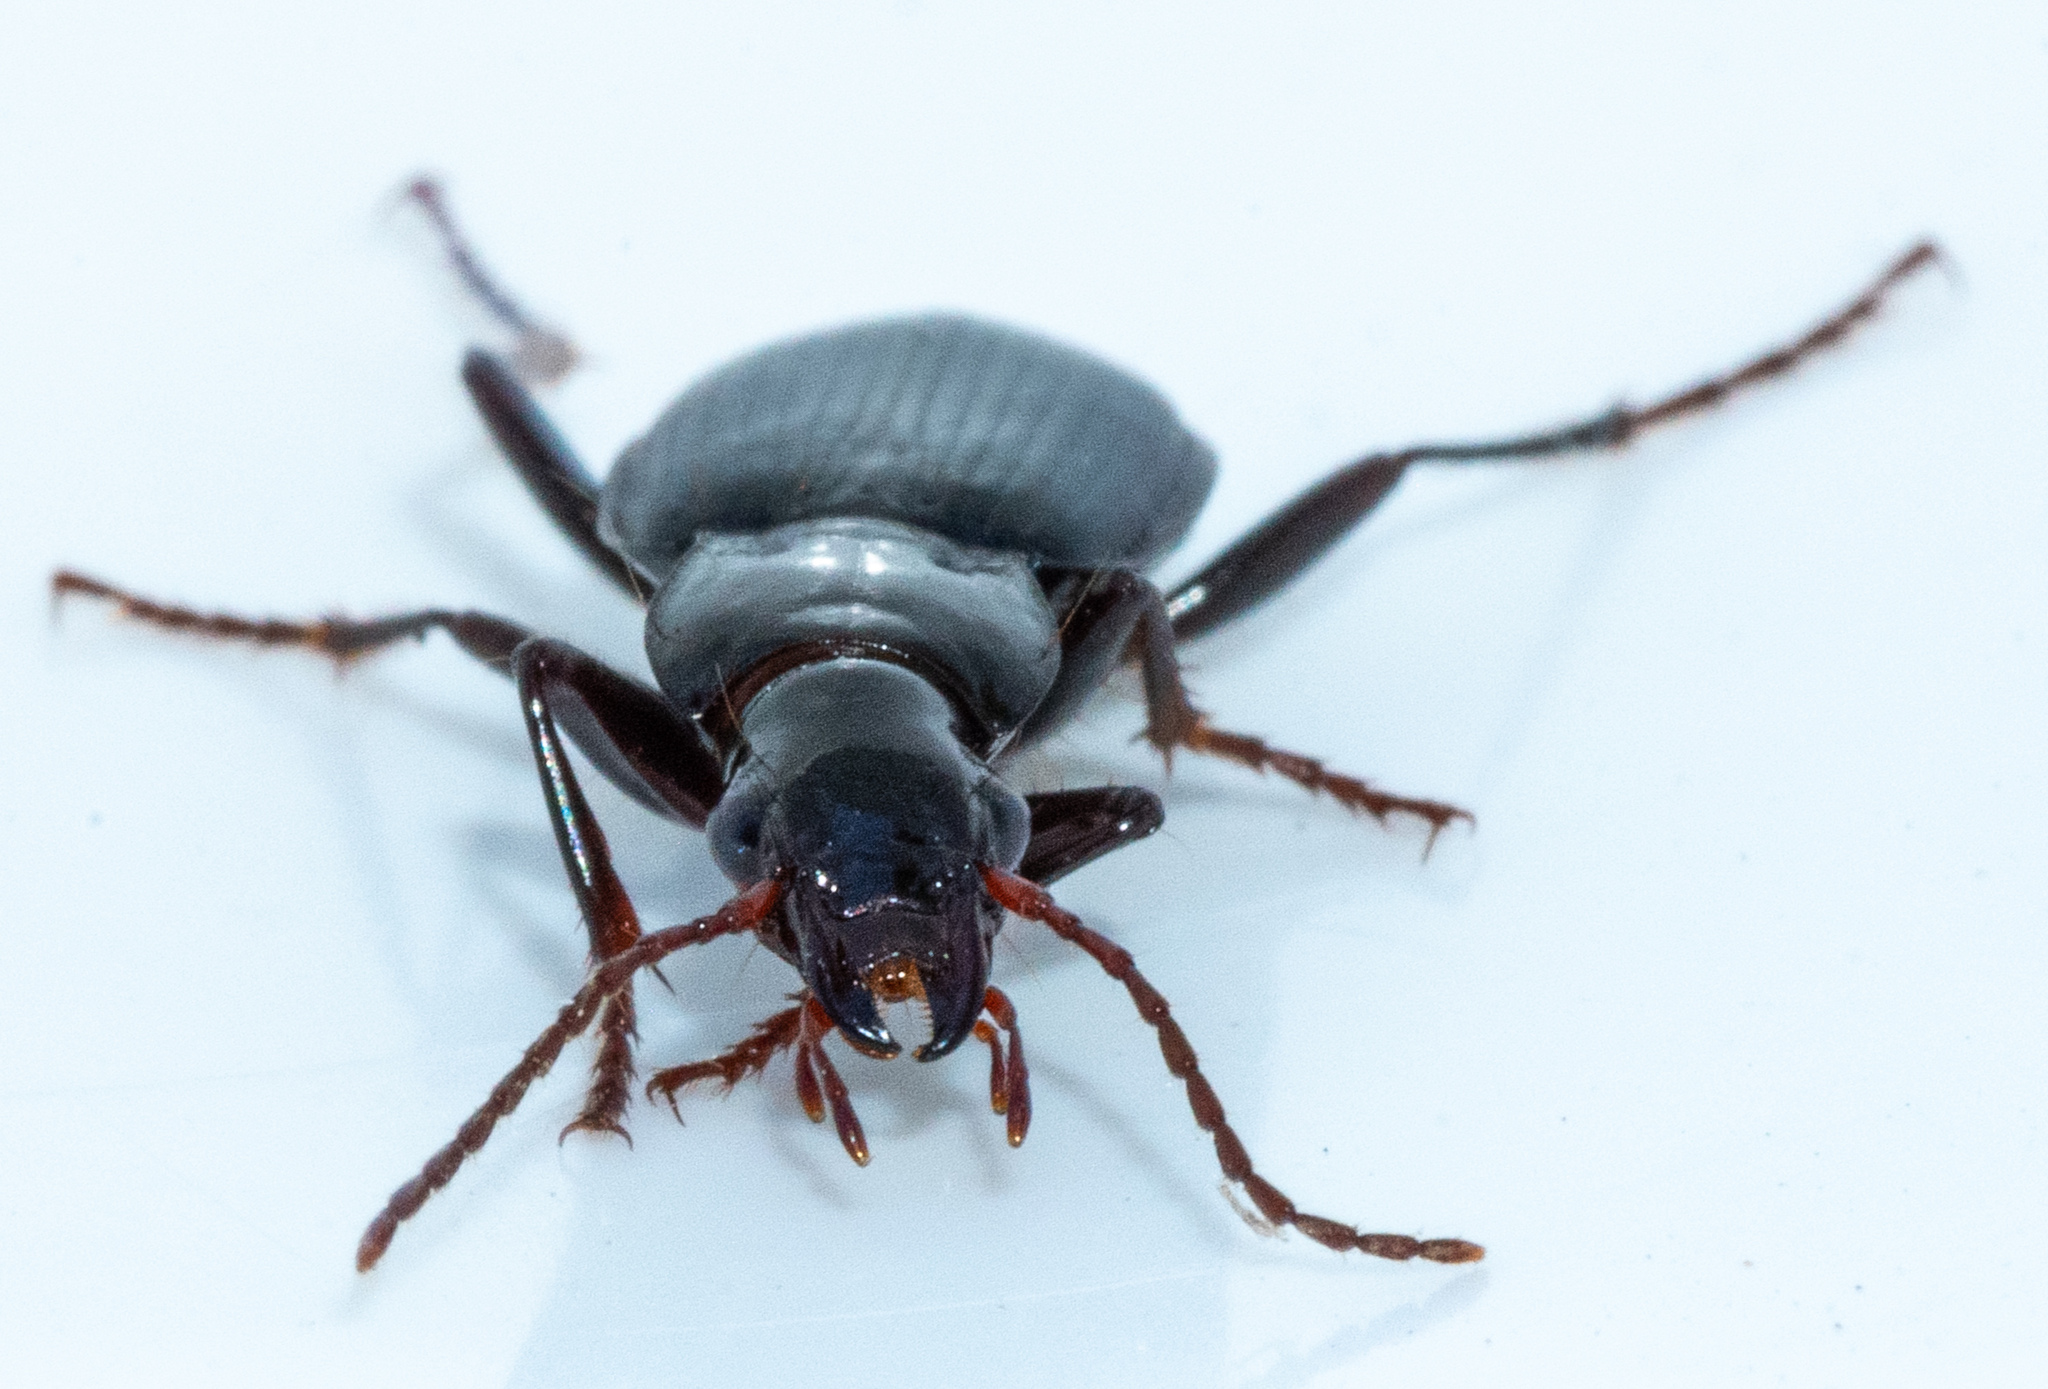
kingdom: Animalia
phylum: Arthropoda
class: Insecta
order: Coleoptera
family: Carabidae
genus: Laemostenus
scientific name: Laemostenus complanatus
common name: Cosmopolitan ground beetle
